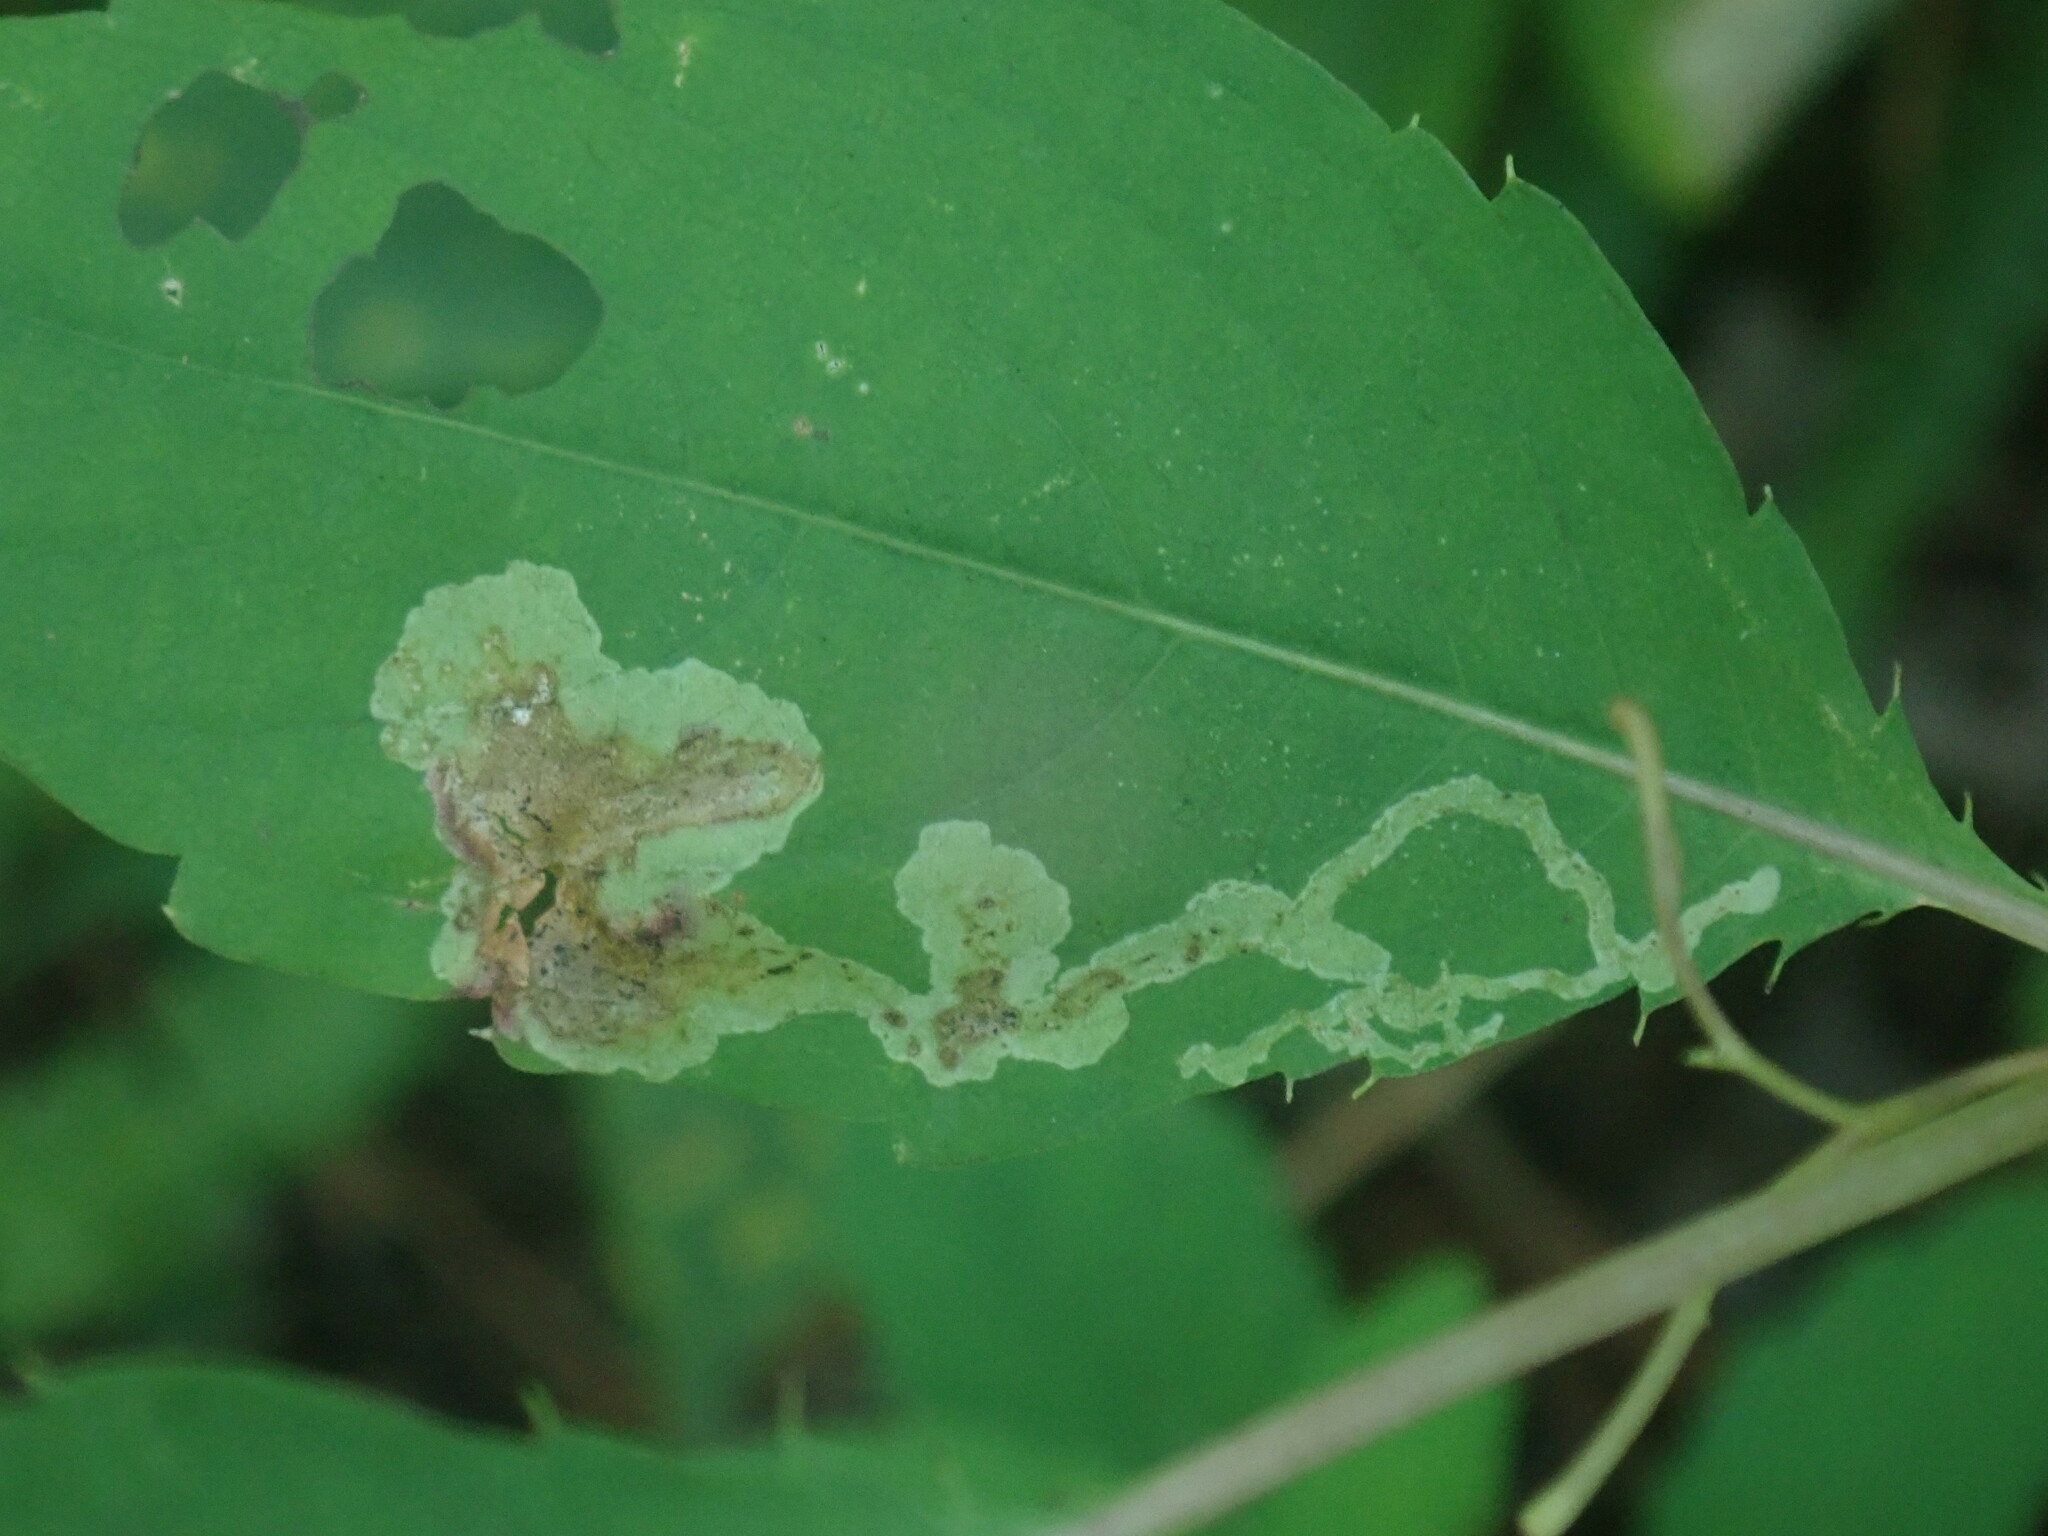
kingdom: Animalia
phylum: Arthropoda
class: Insecta
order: Diptera
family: Agromyzidae
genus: Phytoliriomyza
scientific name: Phytoliriomyza melampyga
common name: Jewelweed leaf-miner fly
